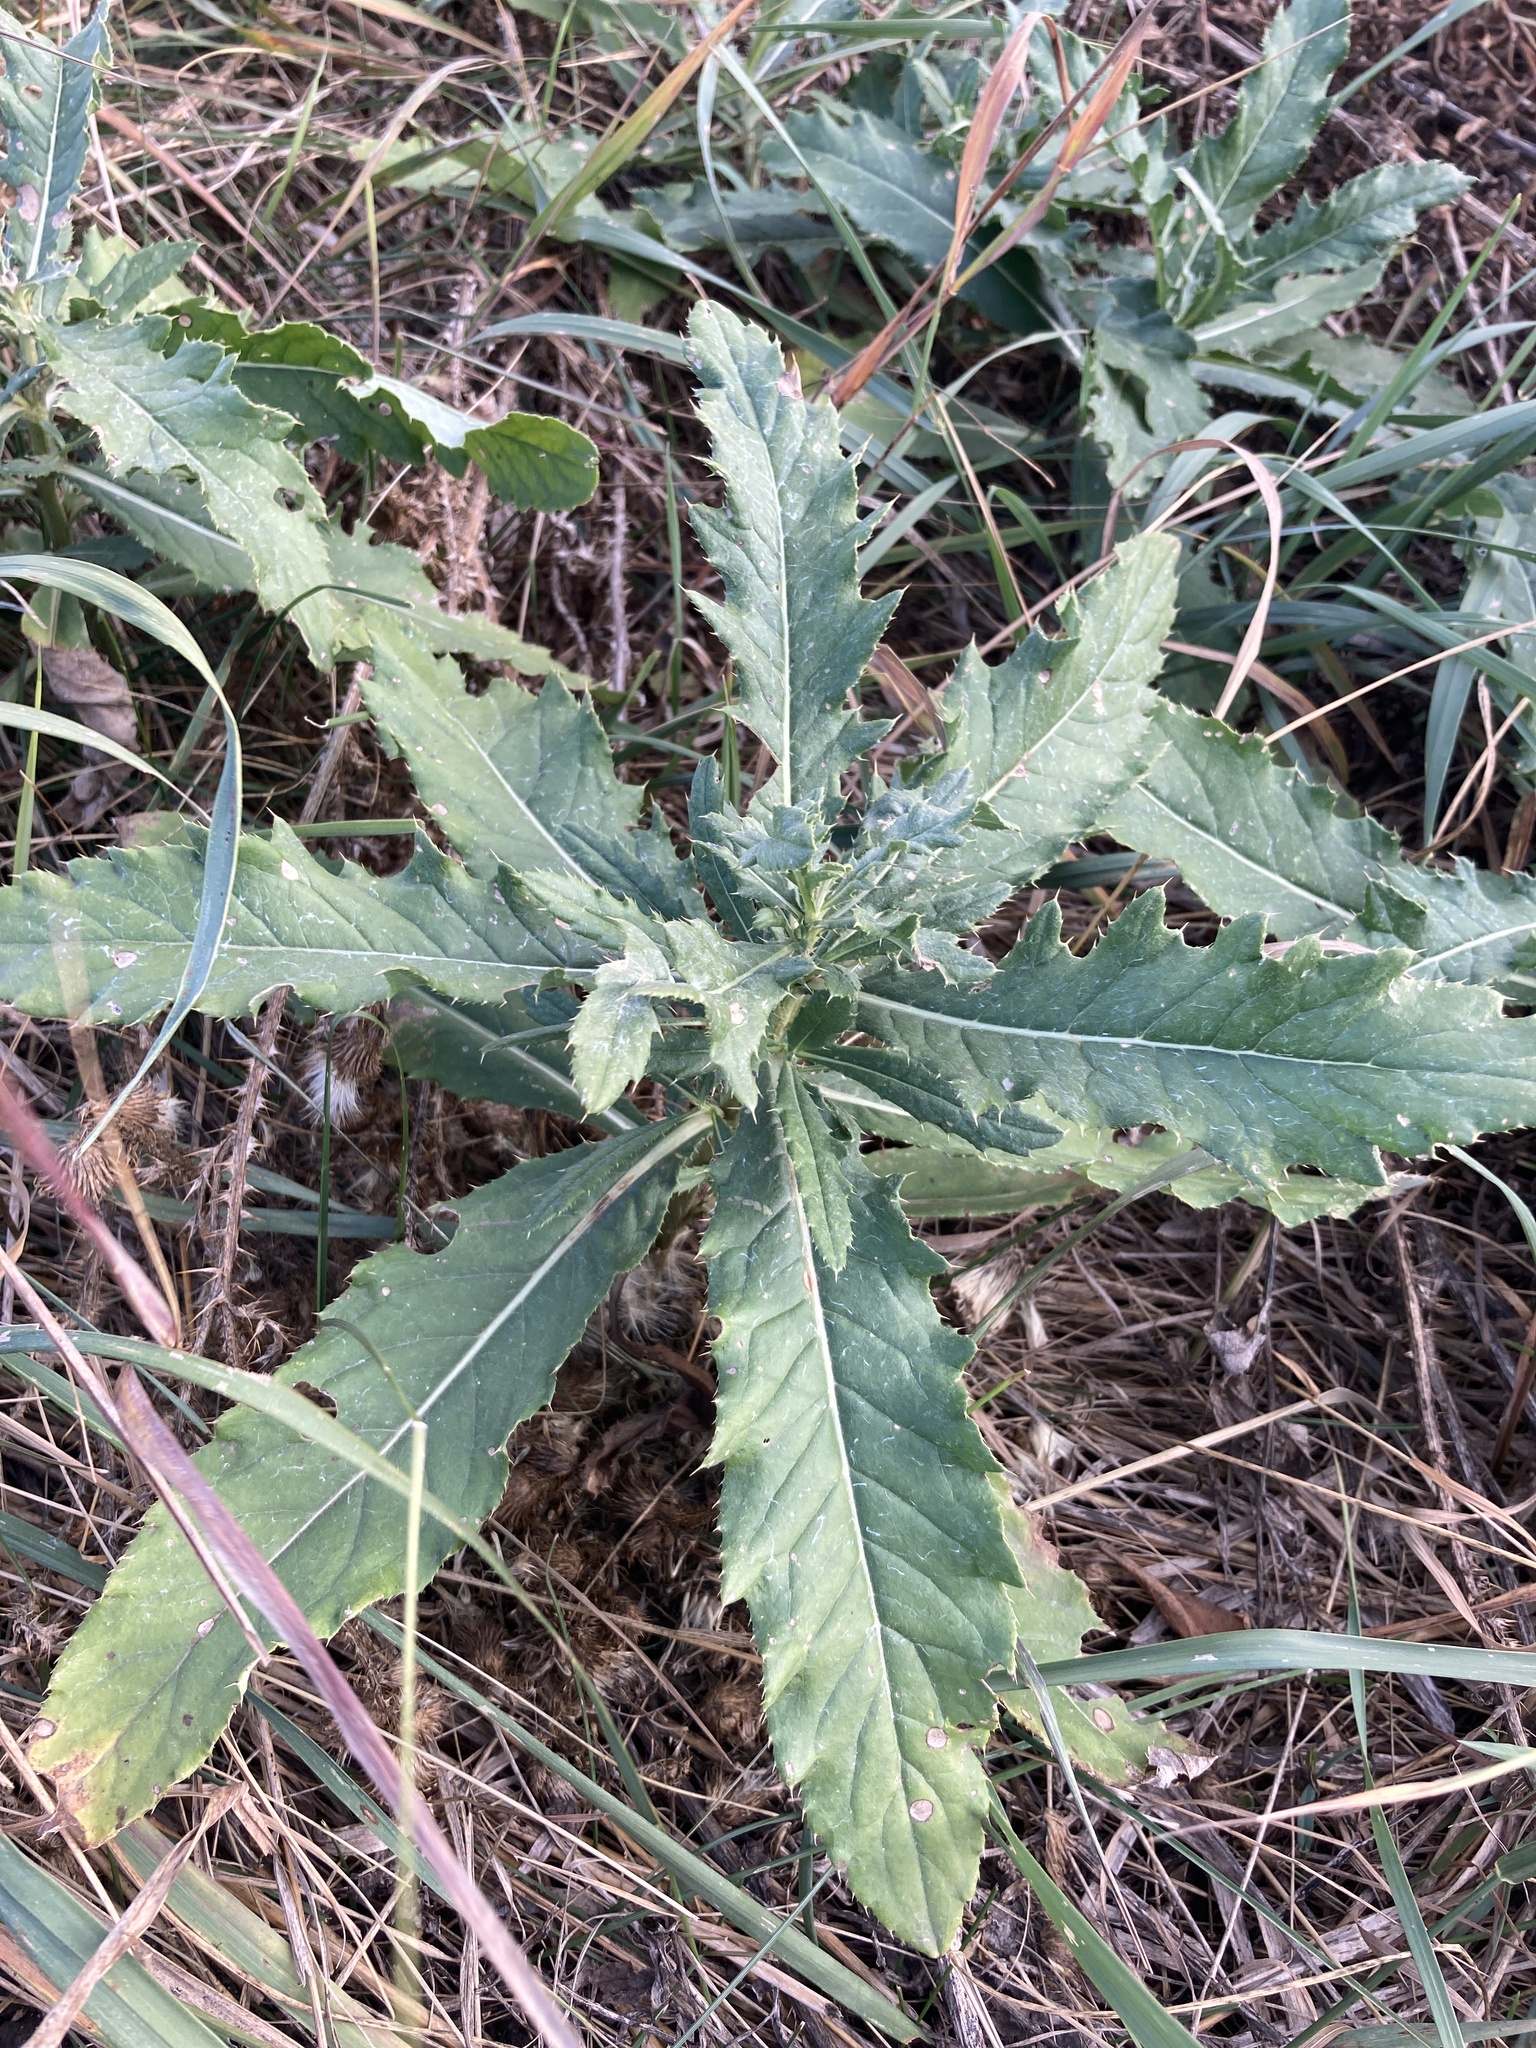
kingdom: Plantae
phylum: Tracheophyta
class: Magnoliopsida
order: Asterales
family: Asteraceae
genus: Cirsium
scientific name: Cirsium arvense
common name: Creeping thistle
